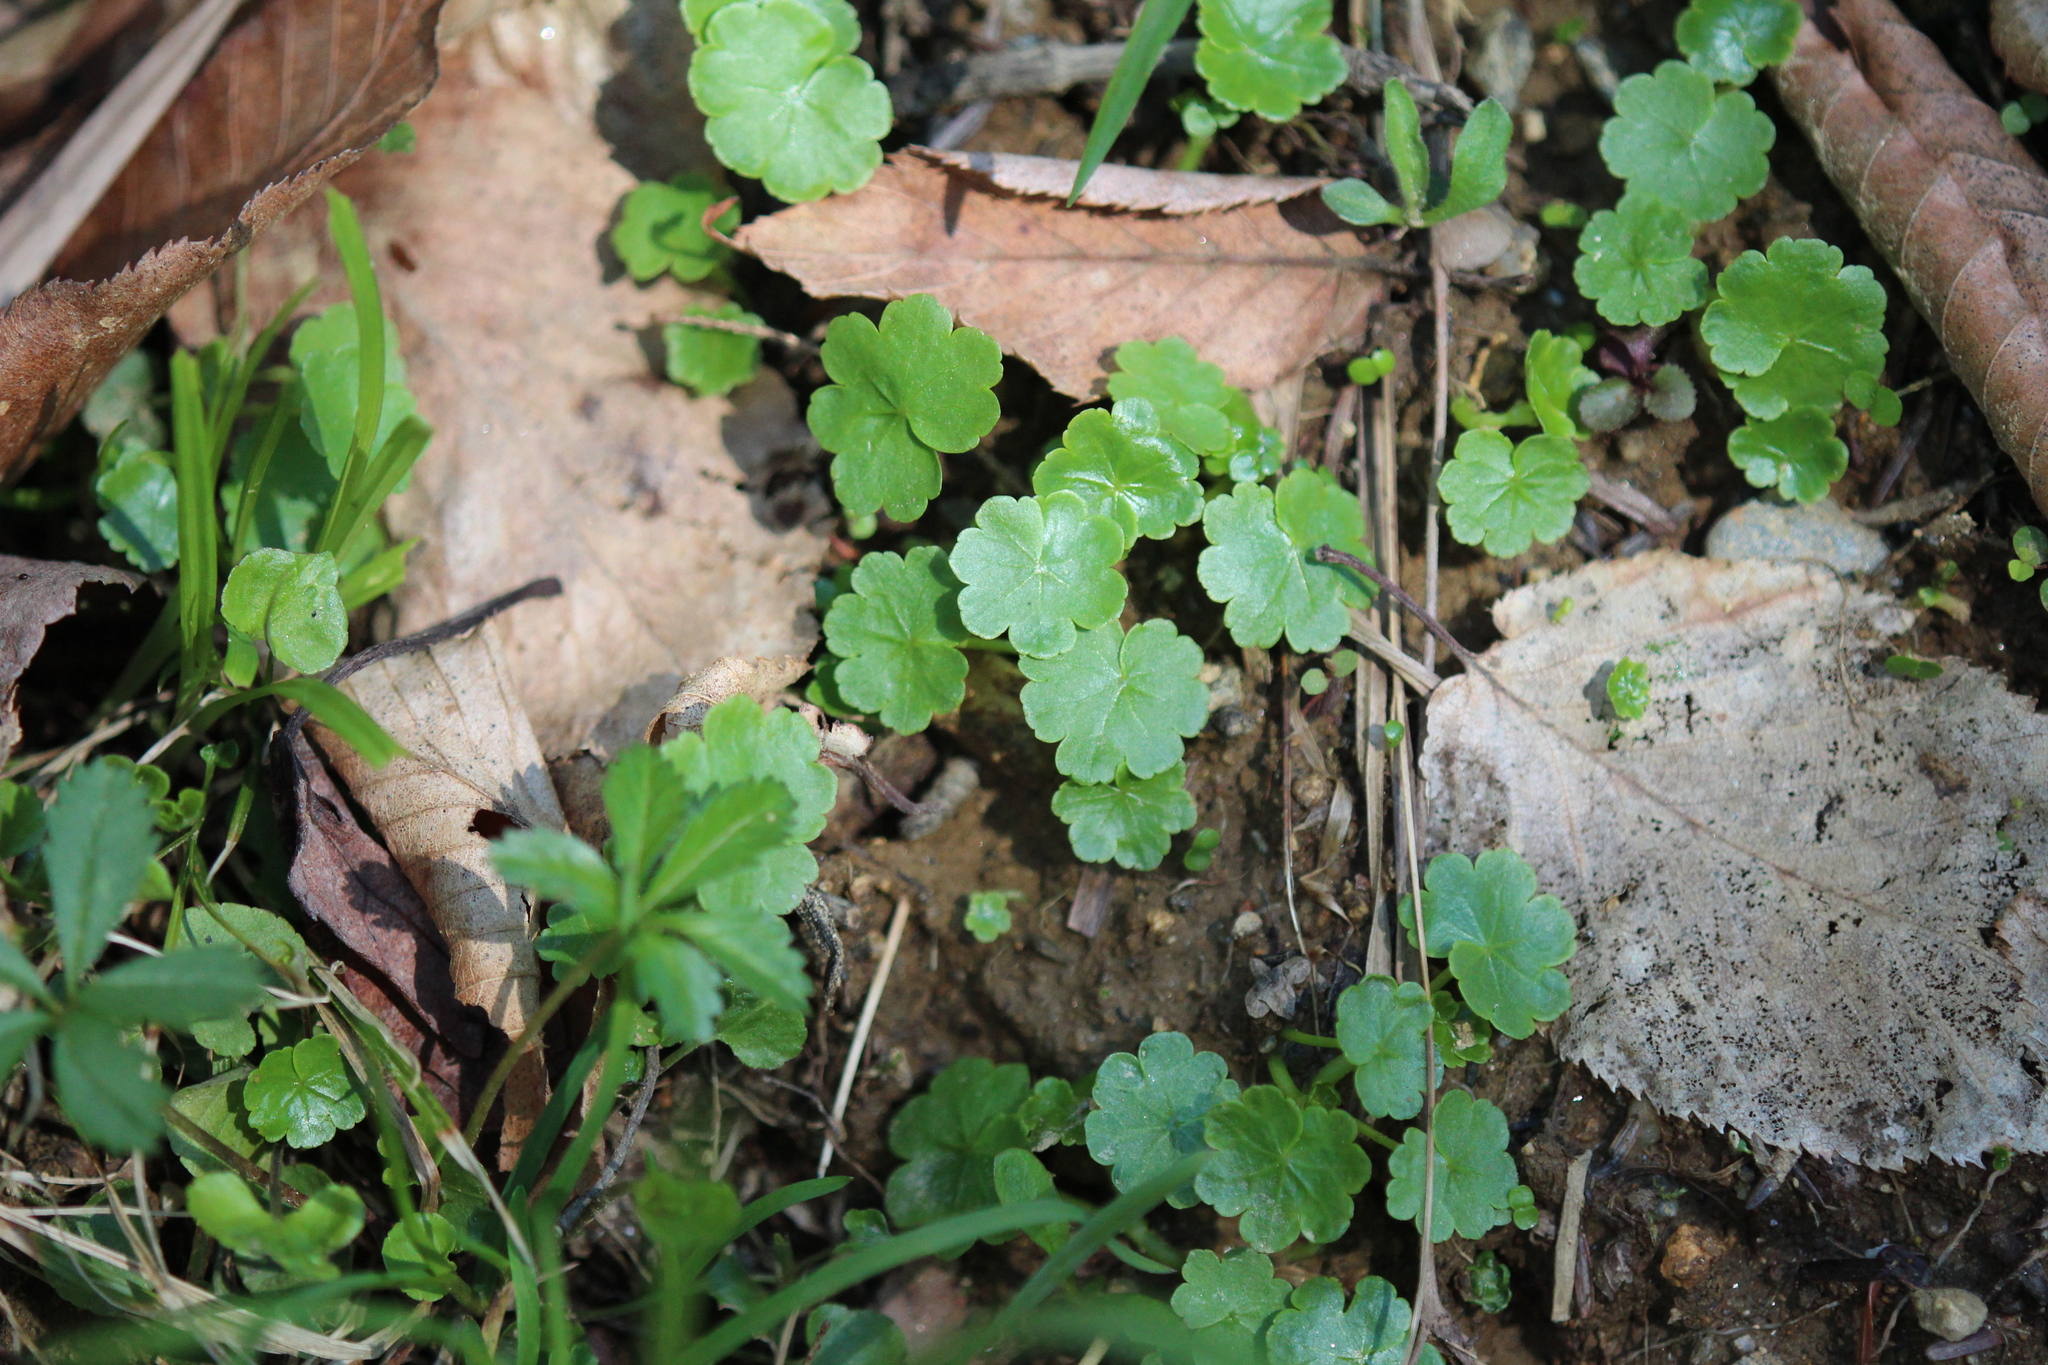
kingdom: Plantae
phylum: Tracheophyta
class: Magnoliopsida
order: Apiales
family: Araliaceae
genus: Hydrocotyle
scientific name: Hydrocotyle americana
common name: American water-pennywort
